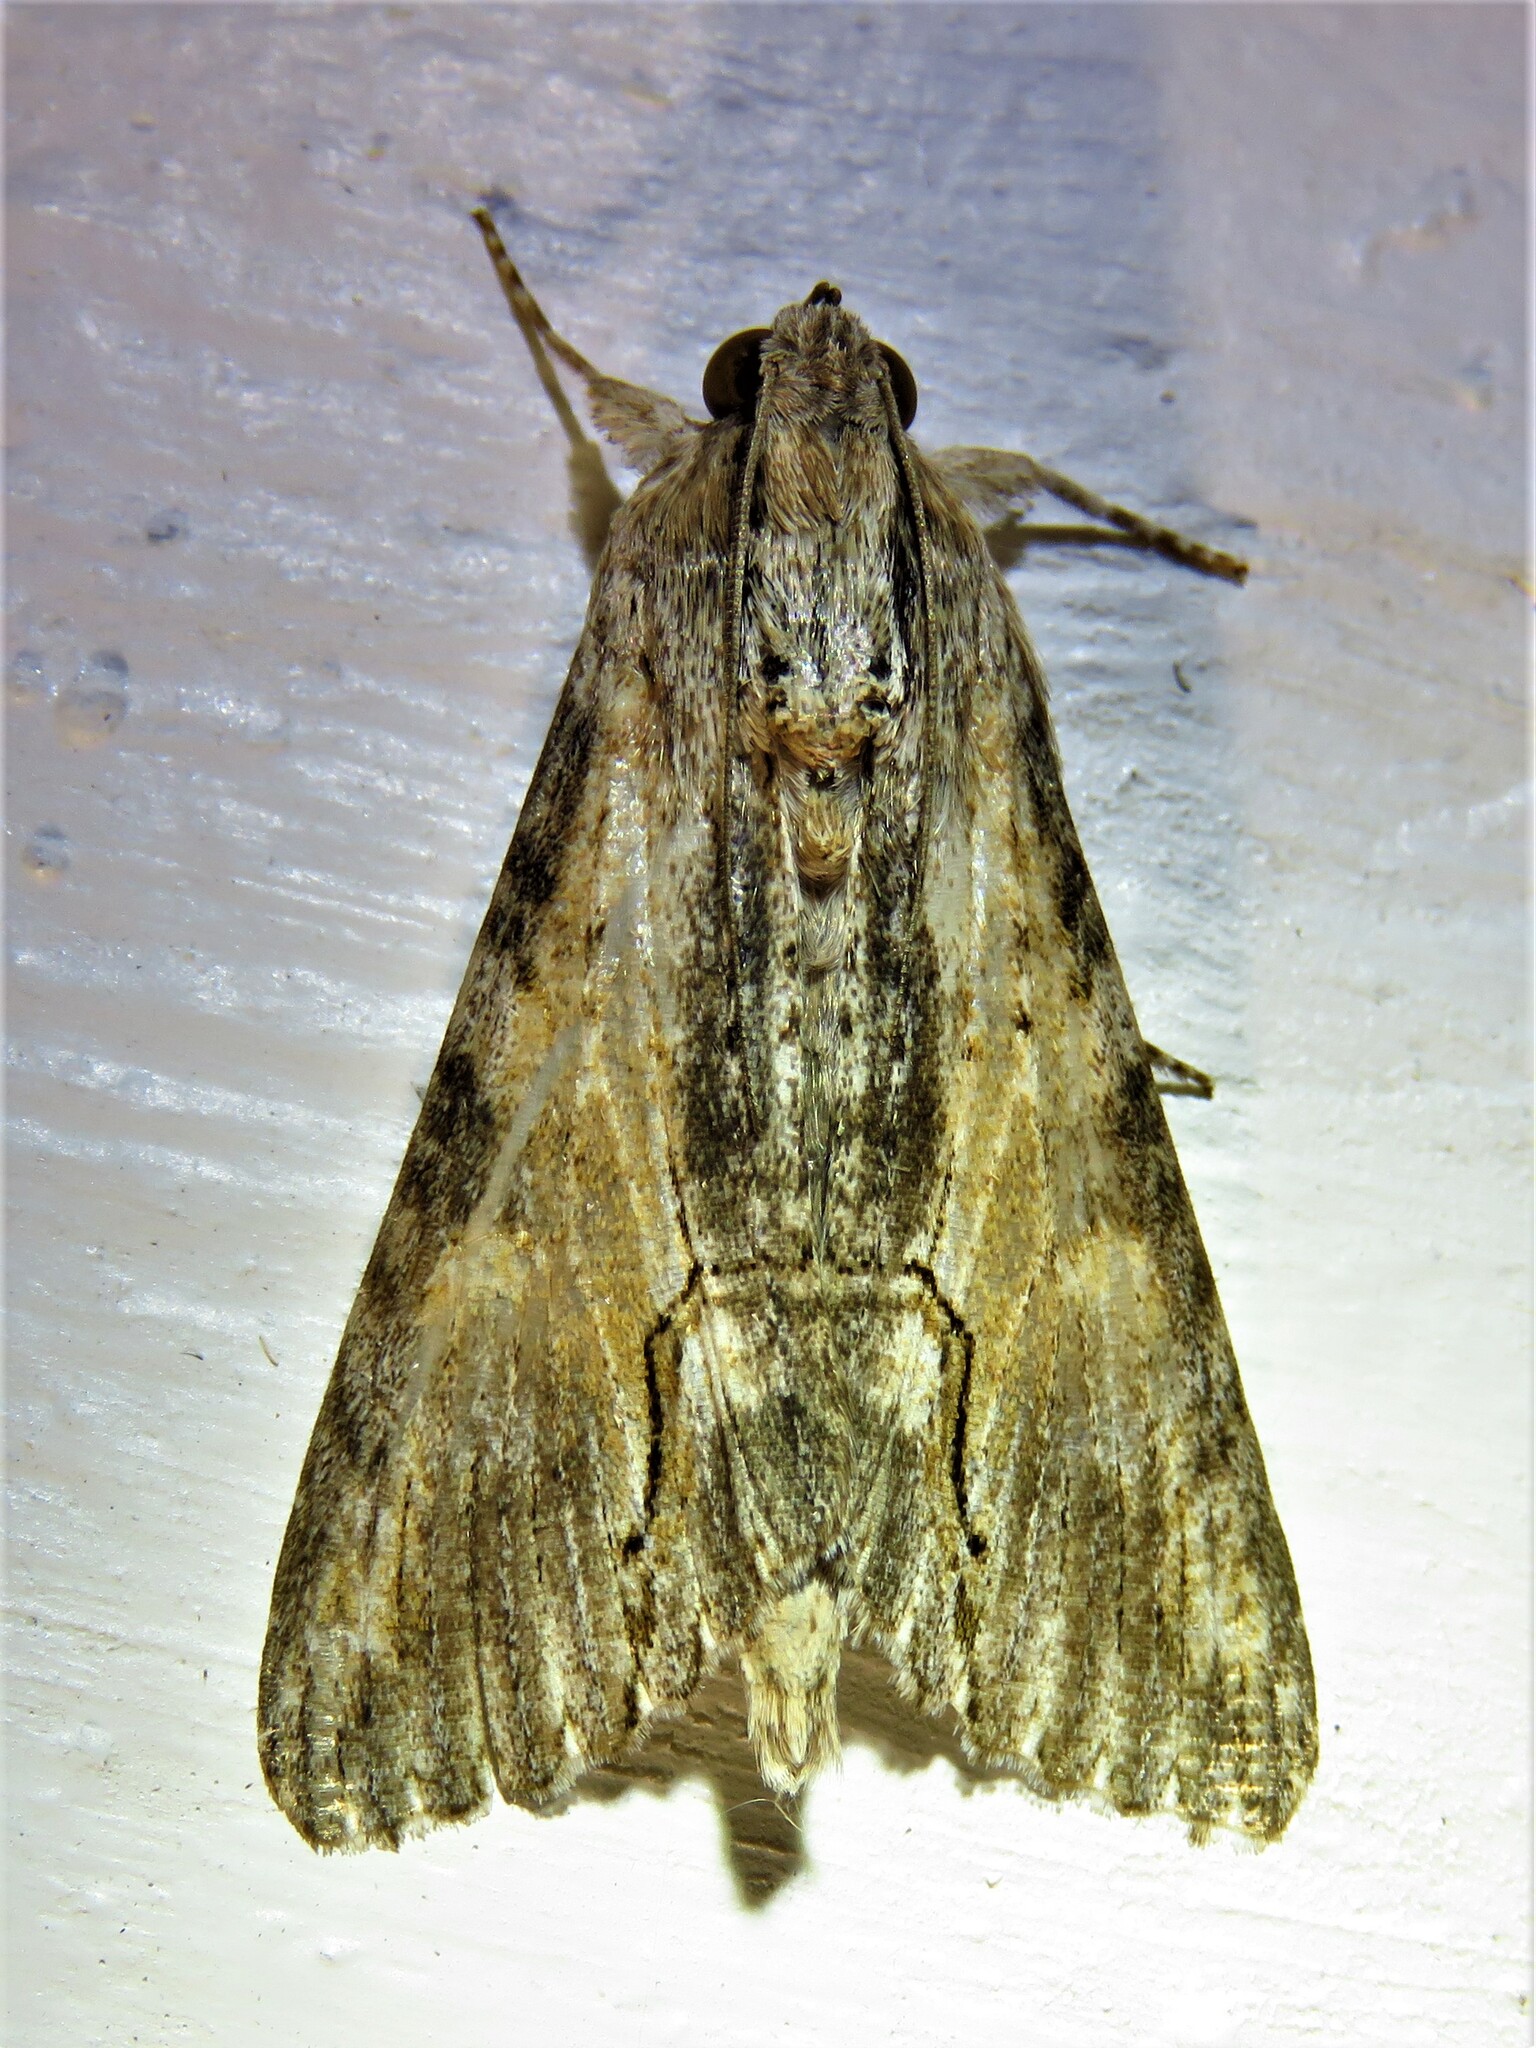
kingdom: Animalia
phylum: Arthropoda
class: Insecta
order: Lepidoptera
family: Erebidae
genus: Melipotis
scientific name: Melipotis acontioides
